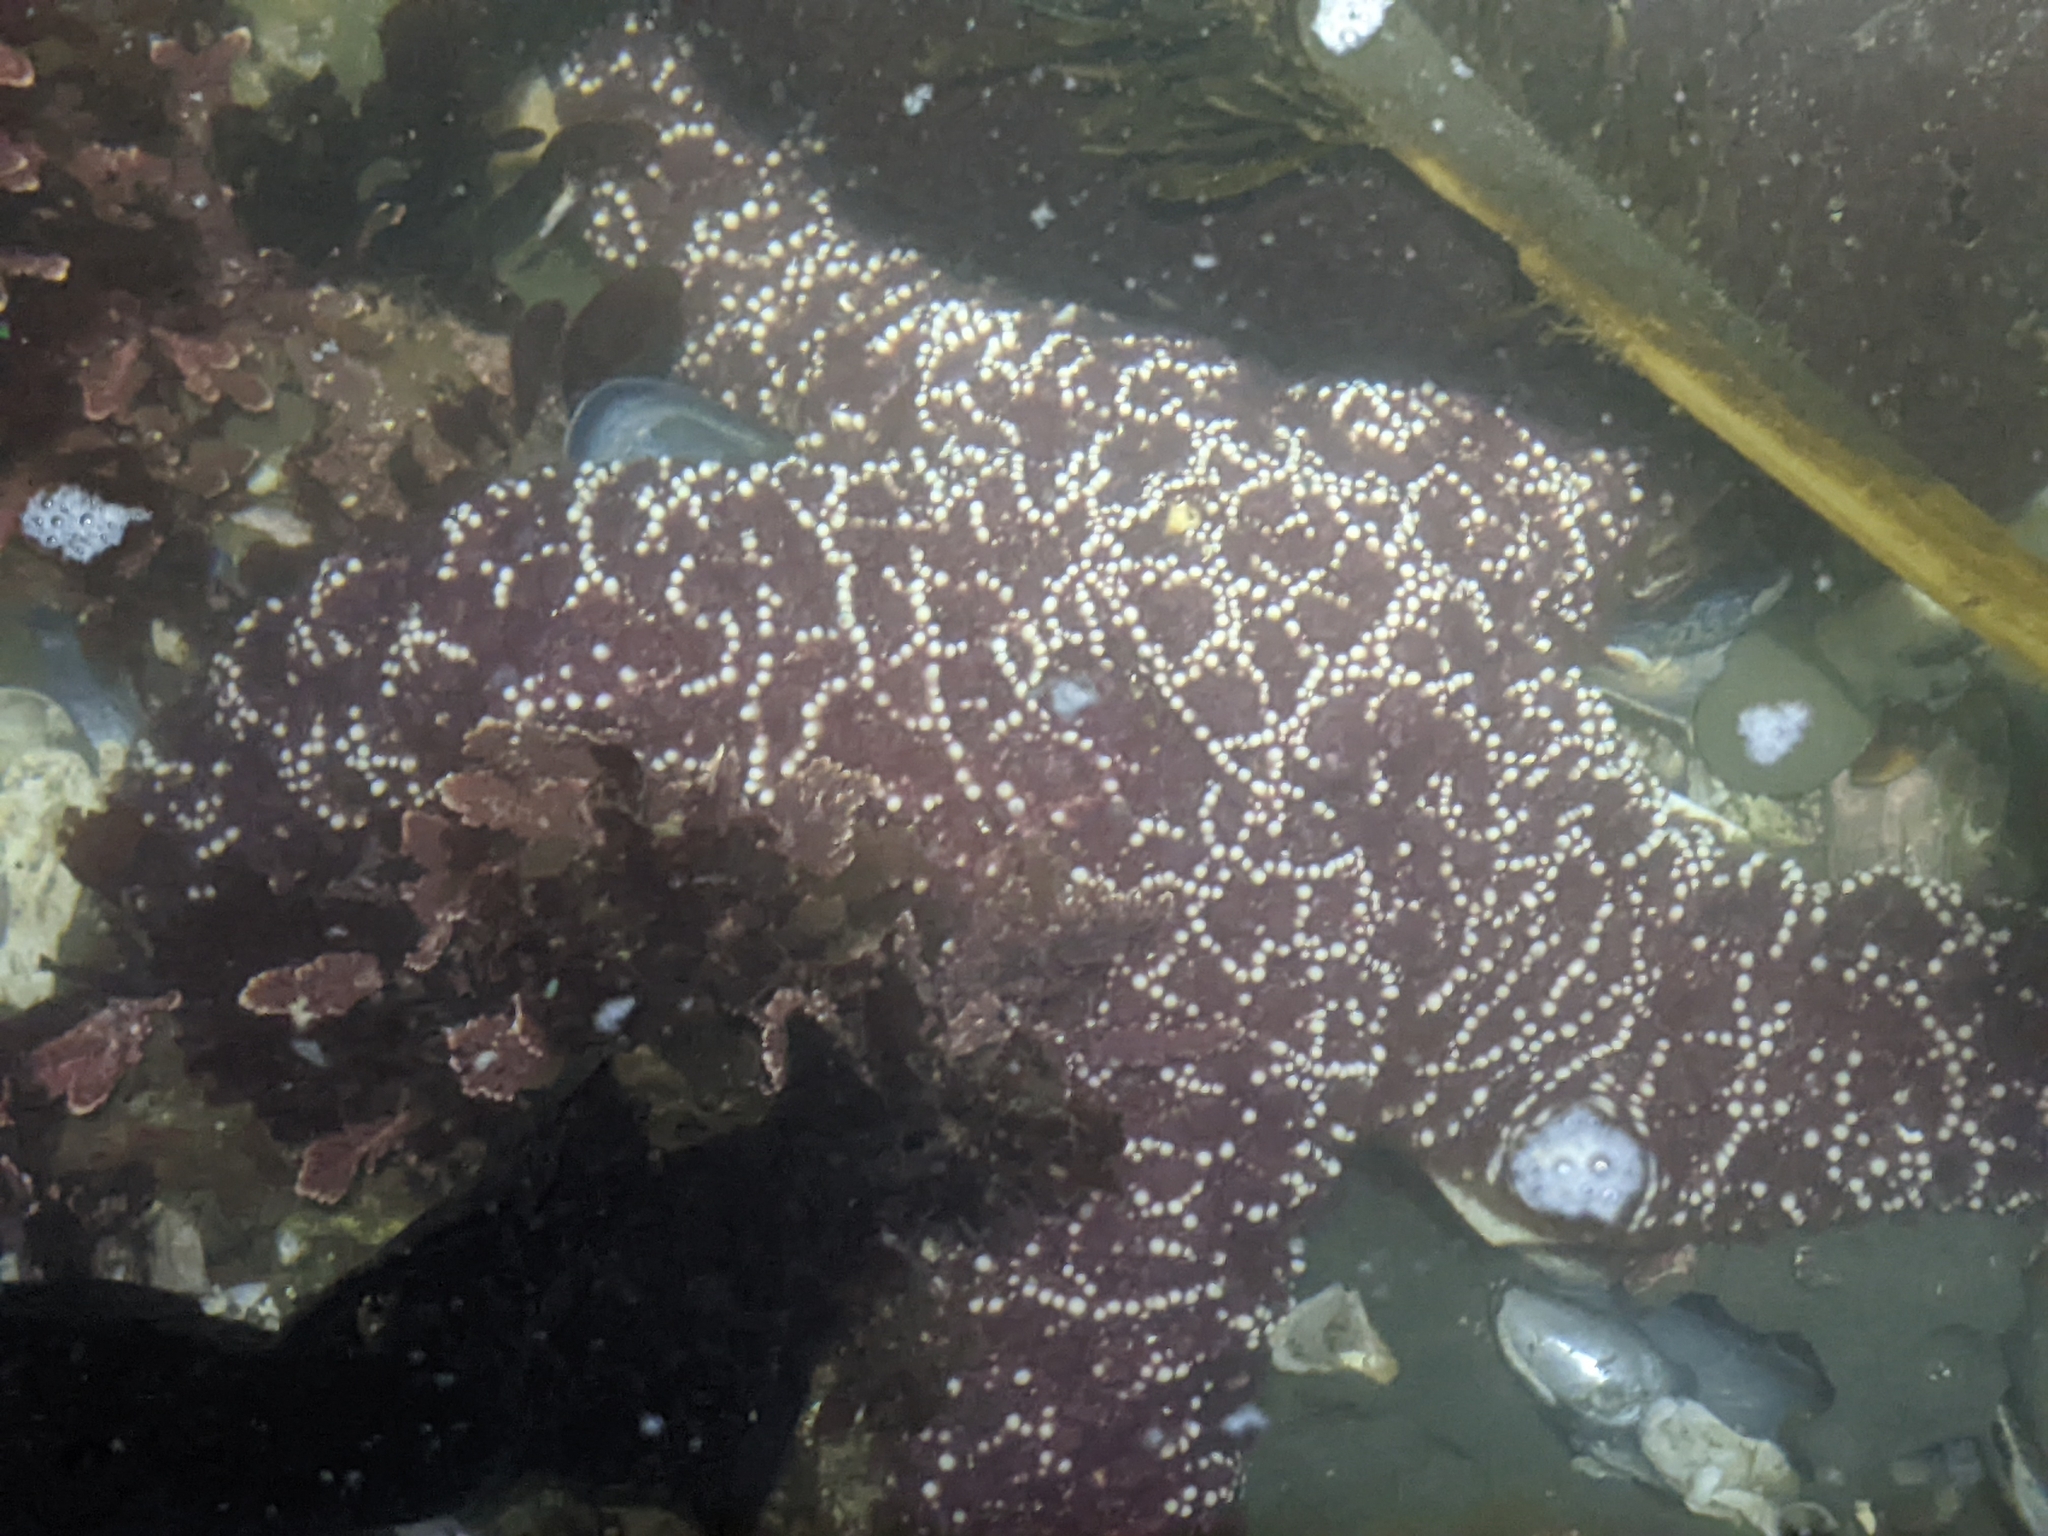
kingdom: Animalia
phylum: Echinodermata
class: Asteroidea
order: Forcipulatida
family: Asteriidae
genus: Pisaster
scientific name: Pisaster ochraceus
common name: Ochre stars
